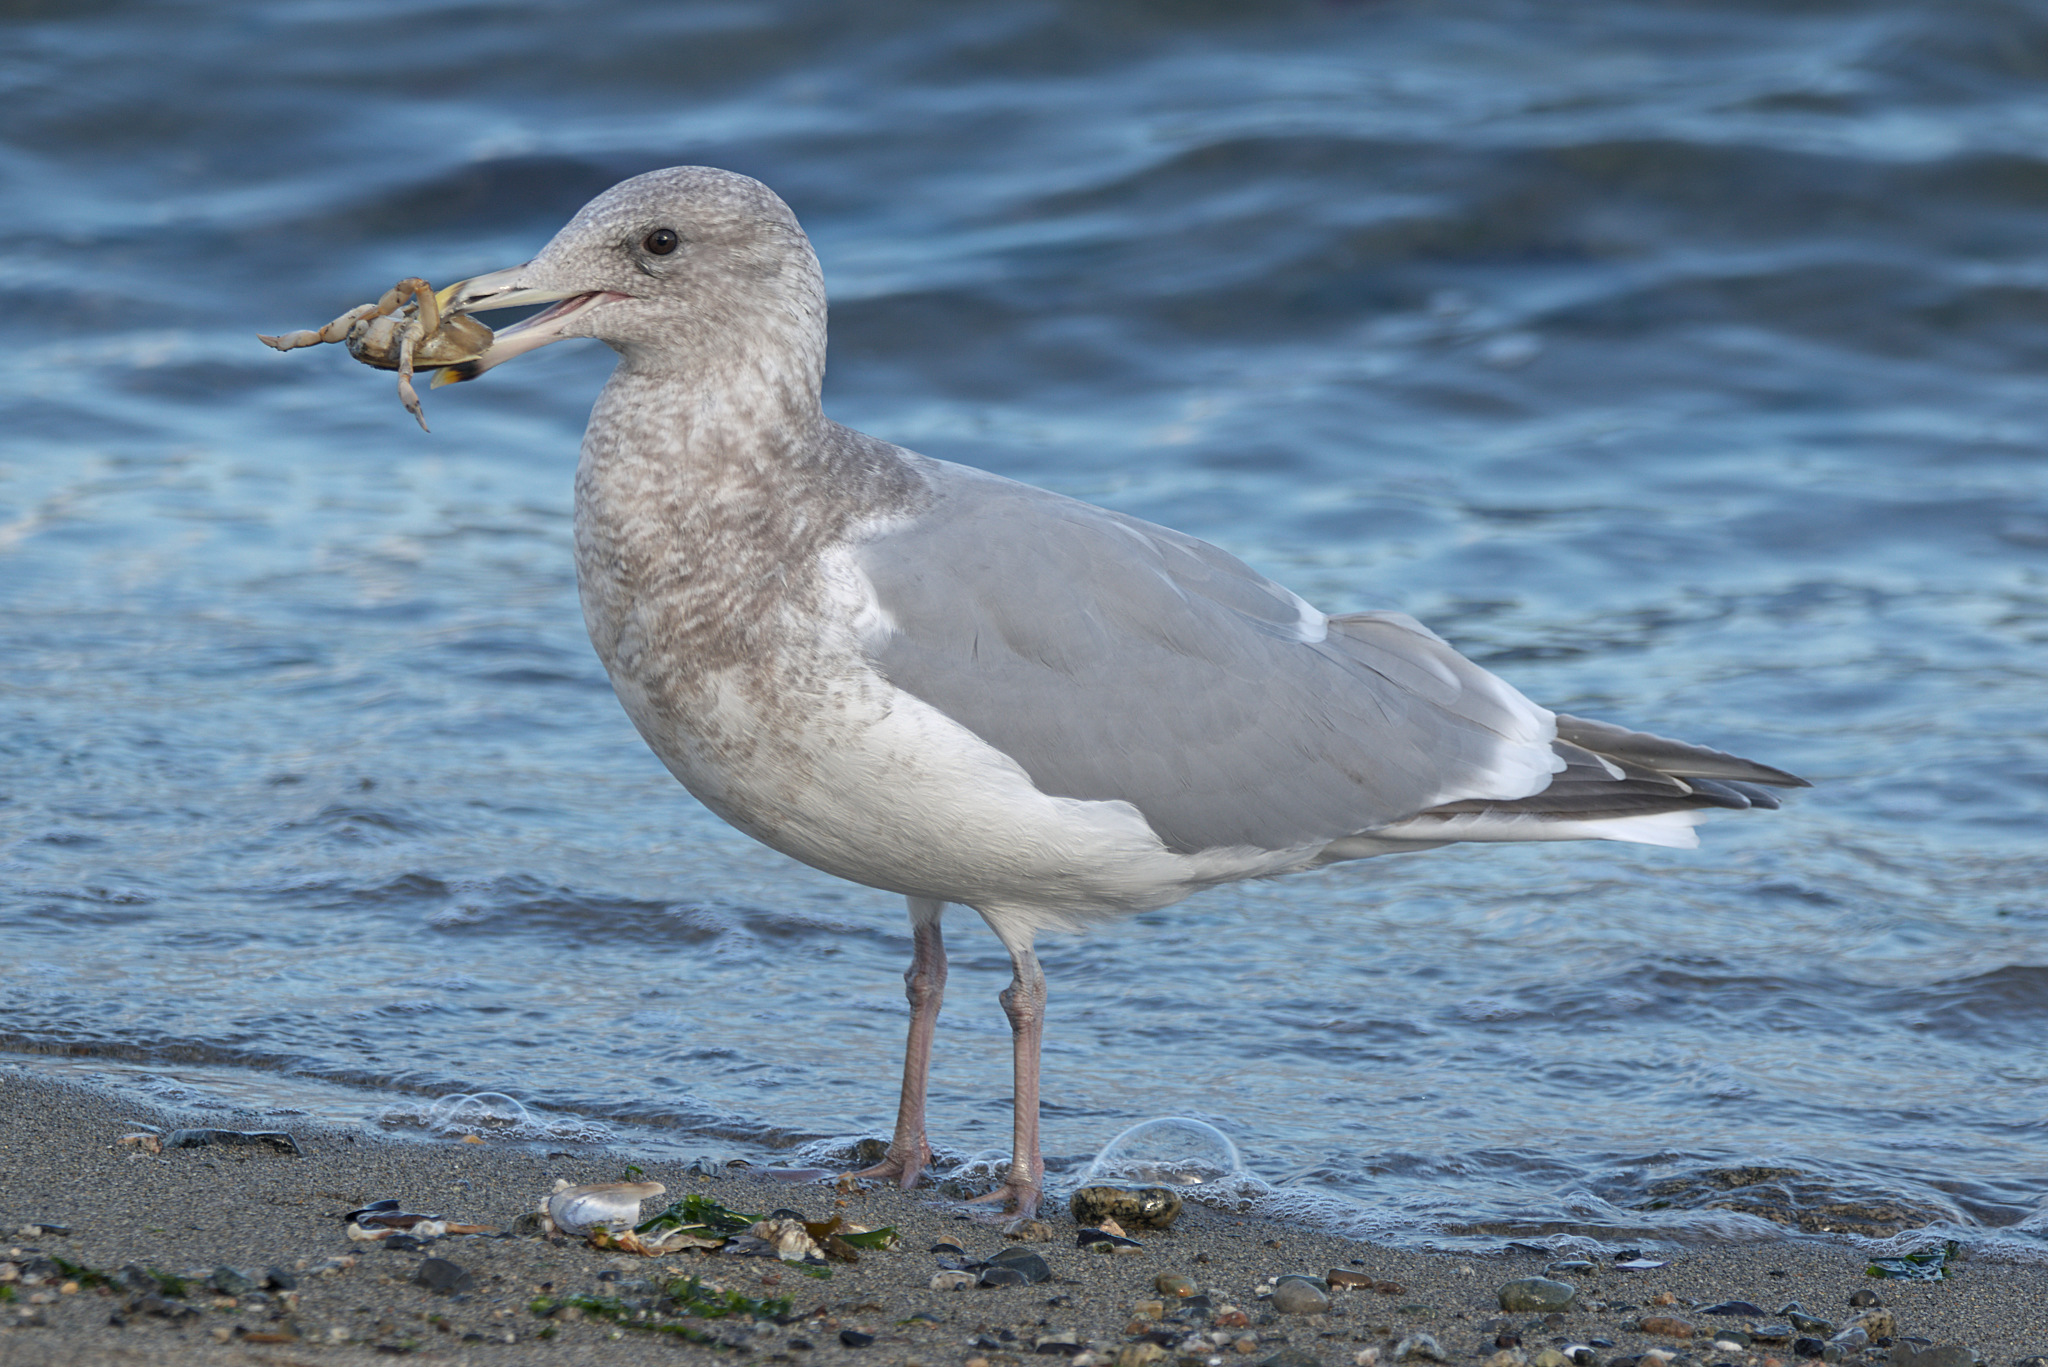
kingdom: Animalia
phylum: Chordata
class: Aves
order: Charadriiformes
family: Laridae
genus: Larus
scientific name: Larus
